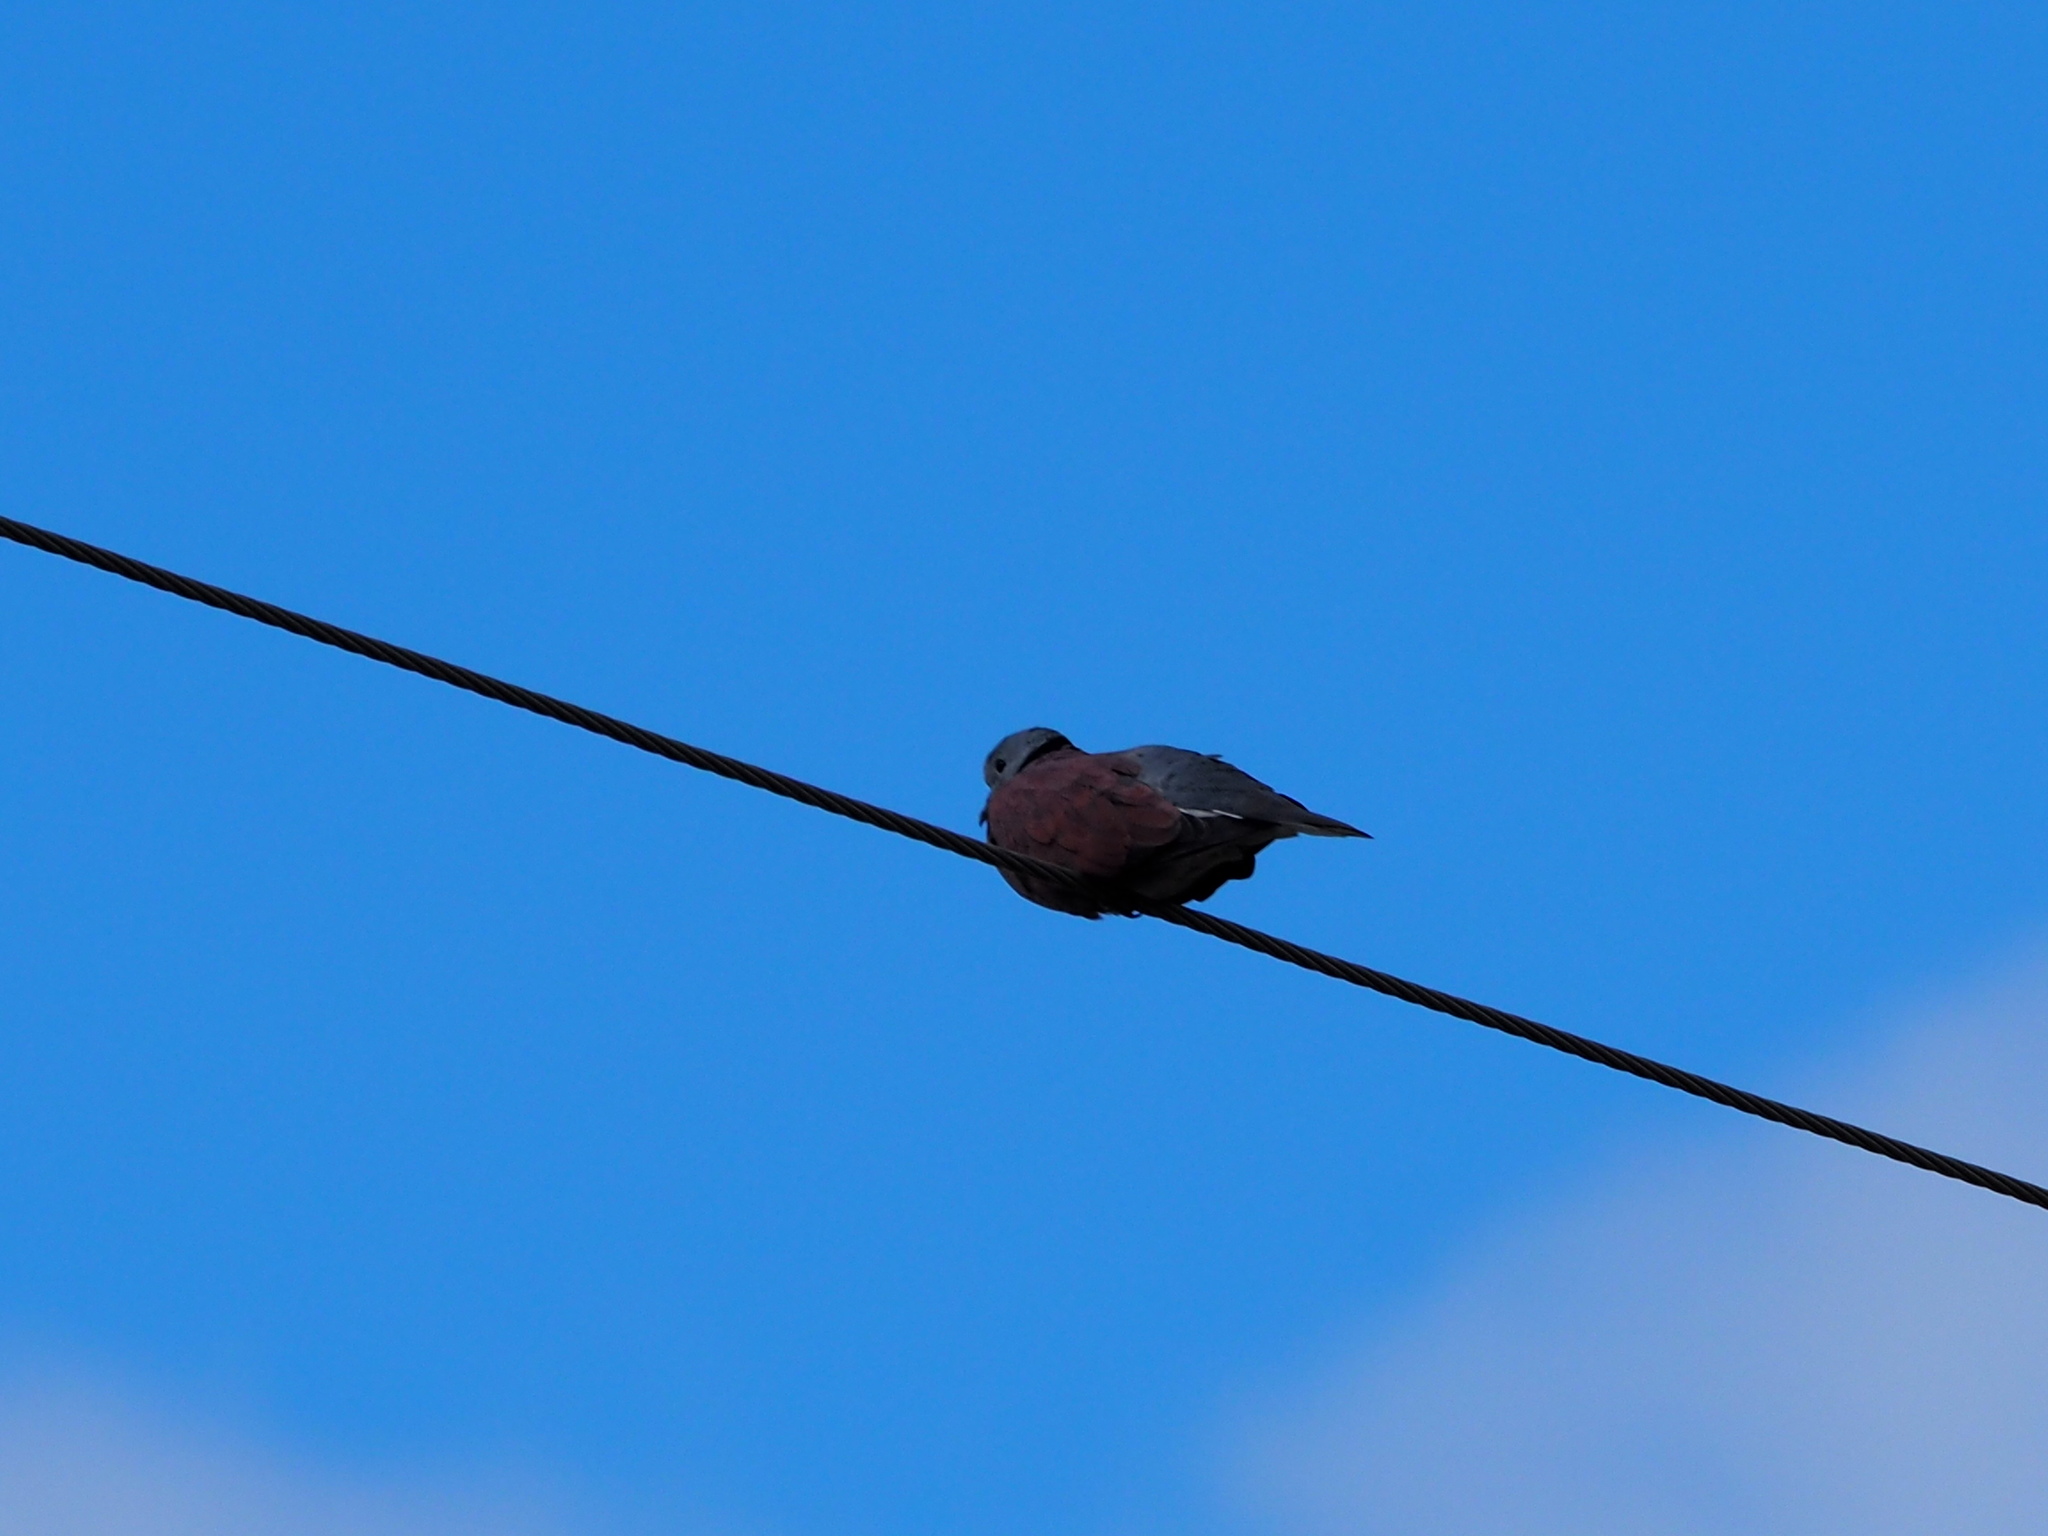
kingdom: Animalia
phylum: Chordata
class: Aves
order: Columbiformes
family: Columbidae
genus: Streptopelia
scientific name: Streptopelia tranquebarica
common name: Red turtle dove
